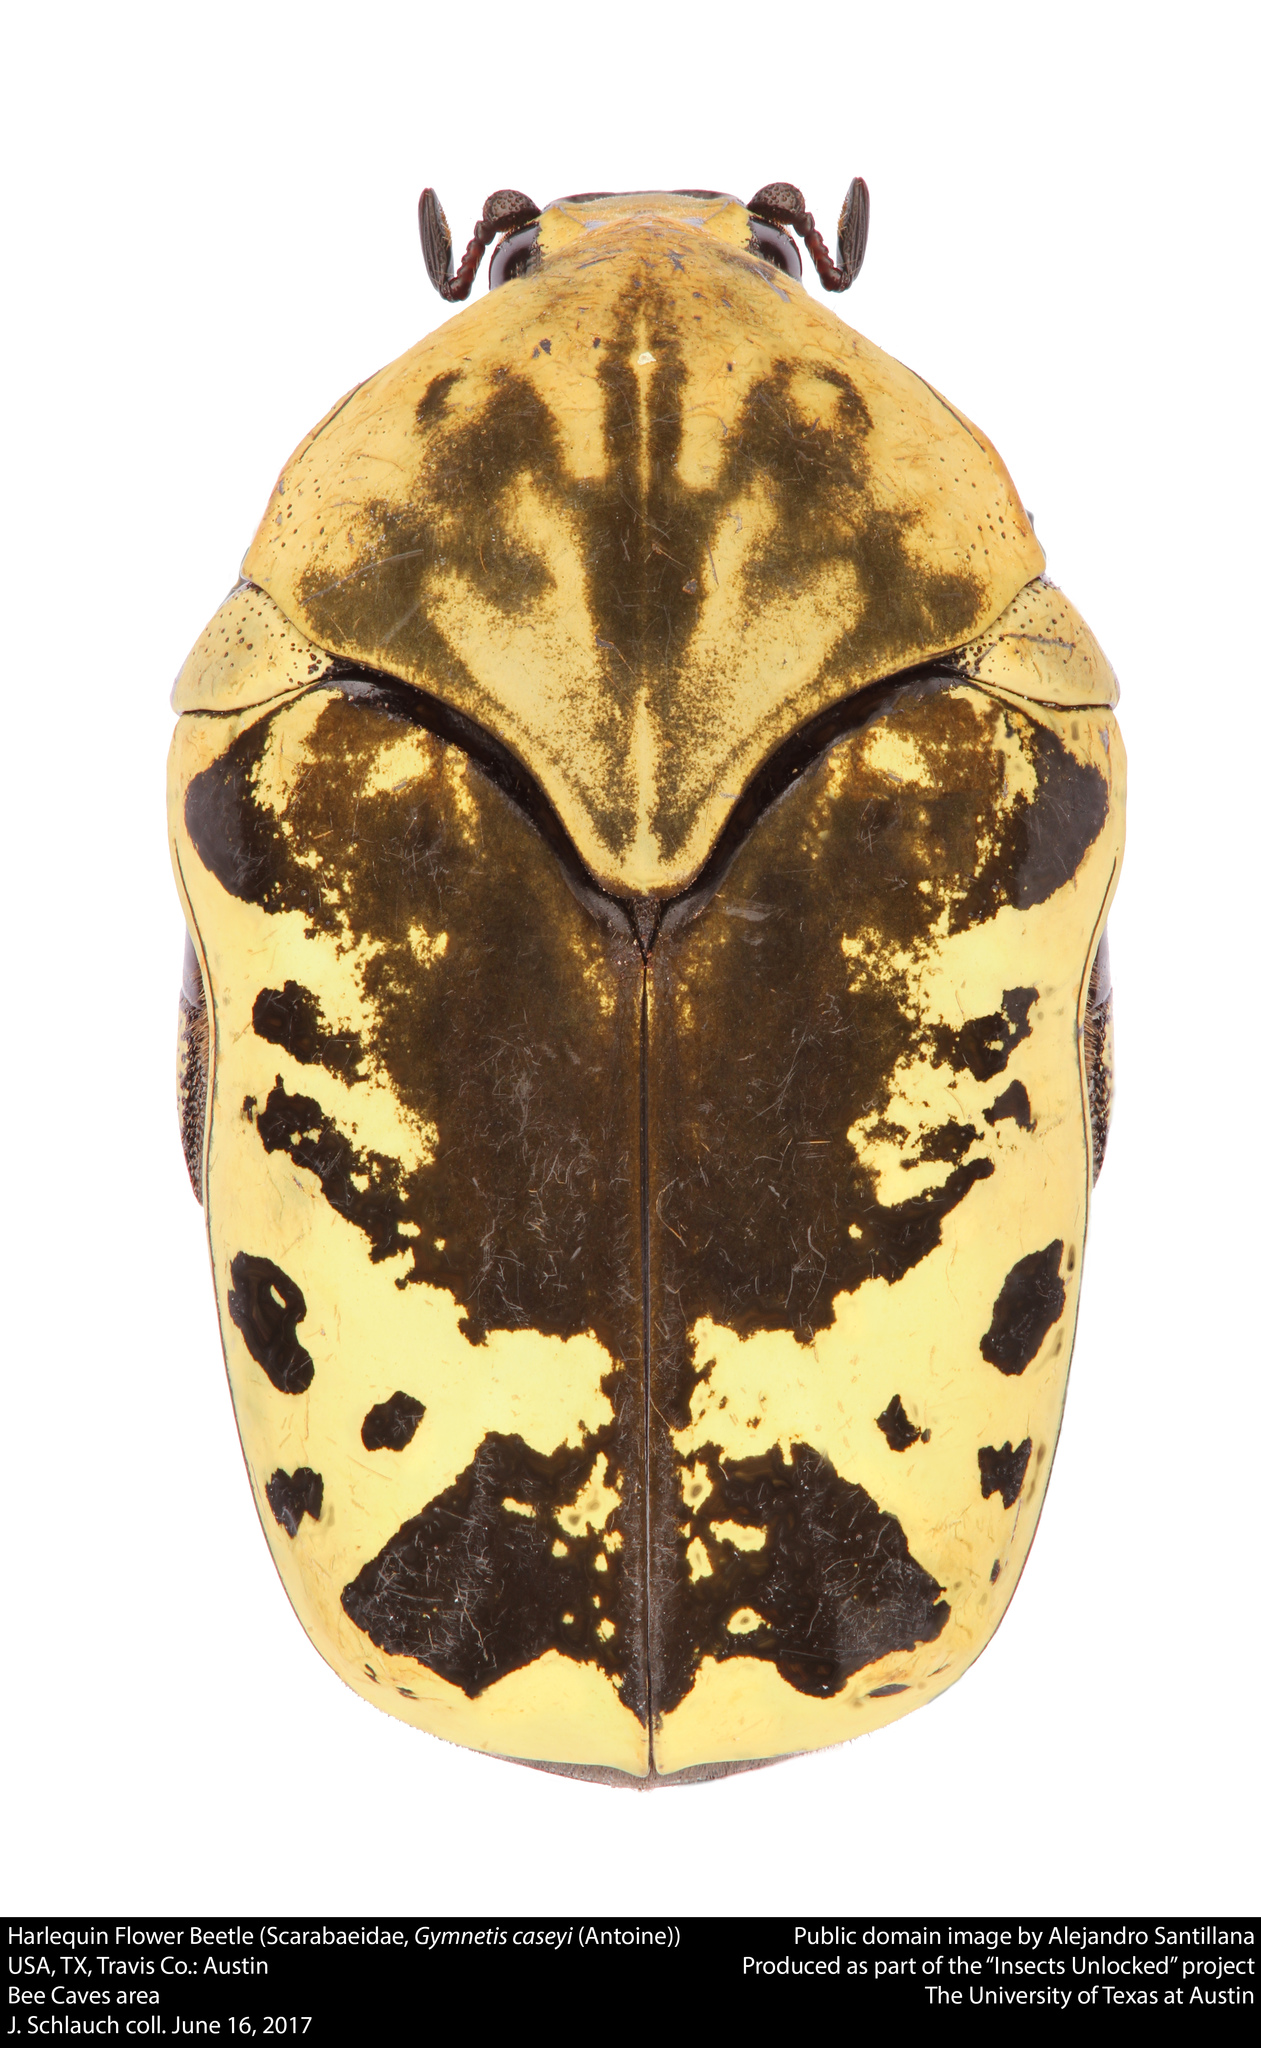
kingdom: Animalia
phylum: Arthropoda
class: Insecta
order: Coleoptera
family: Scarabaeidae
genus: Gymnetis
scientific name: Gymnetis thula
